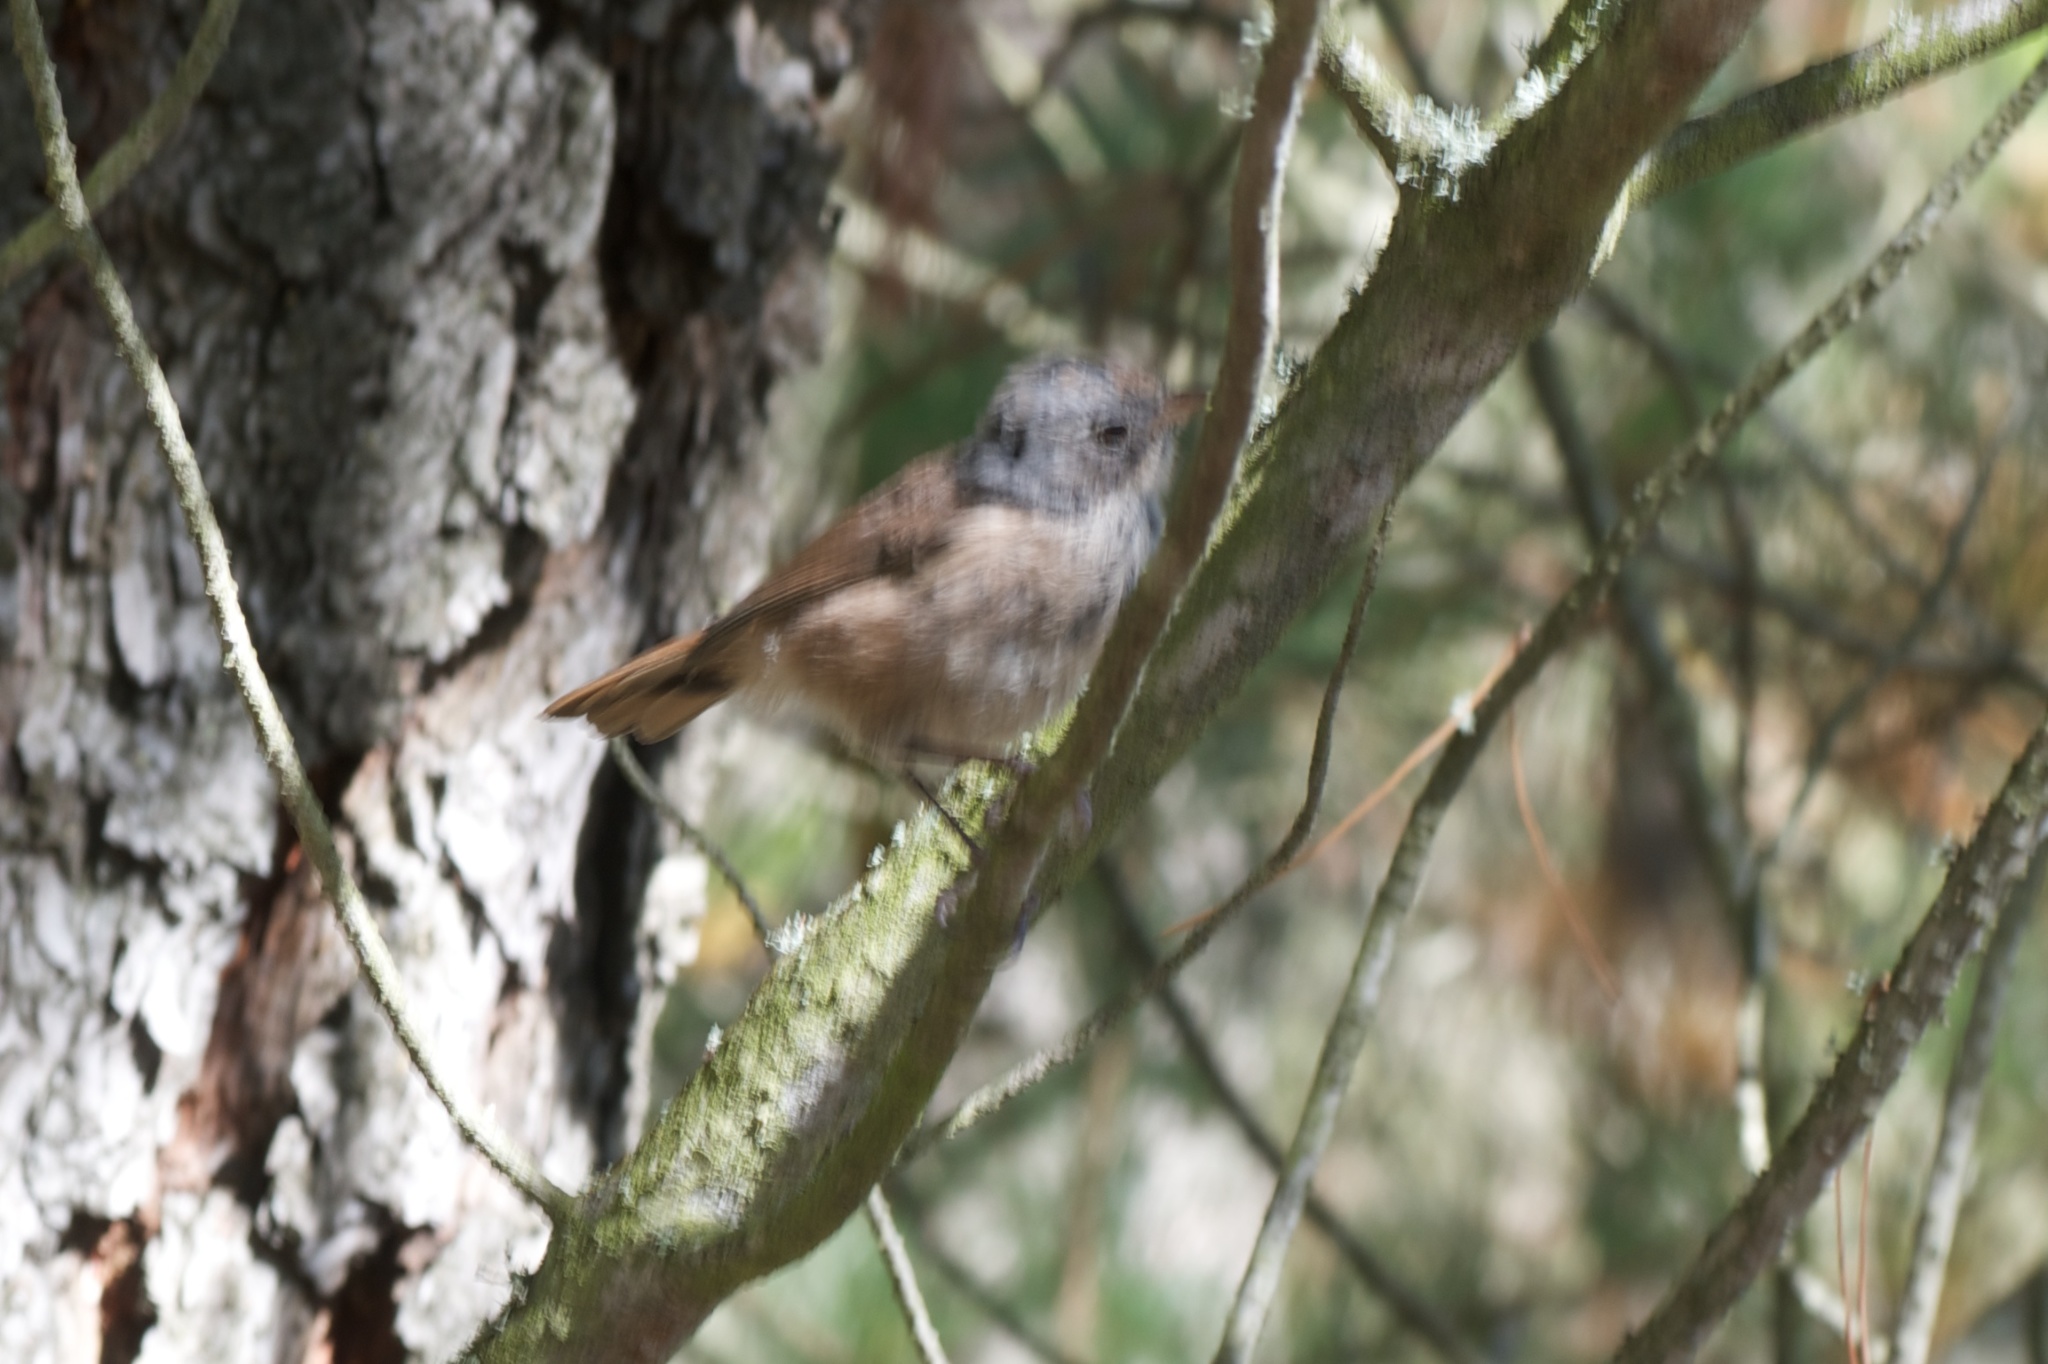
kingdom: Animalia
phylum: Chordata
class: Aves
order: Passeriformes
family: Acanthizidae
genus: Finschia
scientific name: Finschia novaeseelandiae
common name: Pipipi
